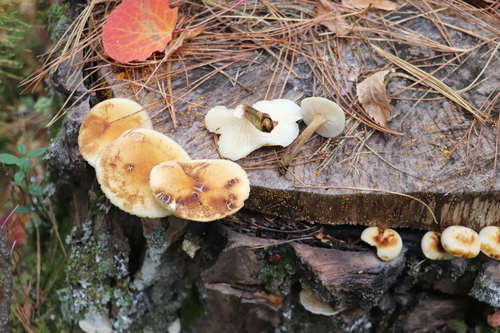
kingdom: Fungi
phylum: Basidiomycota
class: Agaricomycetes
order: Agaricales
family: Physalacriaceae
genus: Flammulina
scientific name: Flammulina velutipes
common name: Velvet shank
